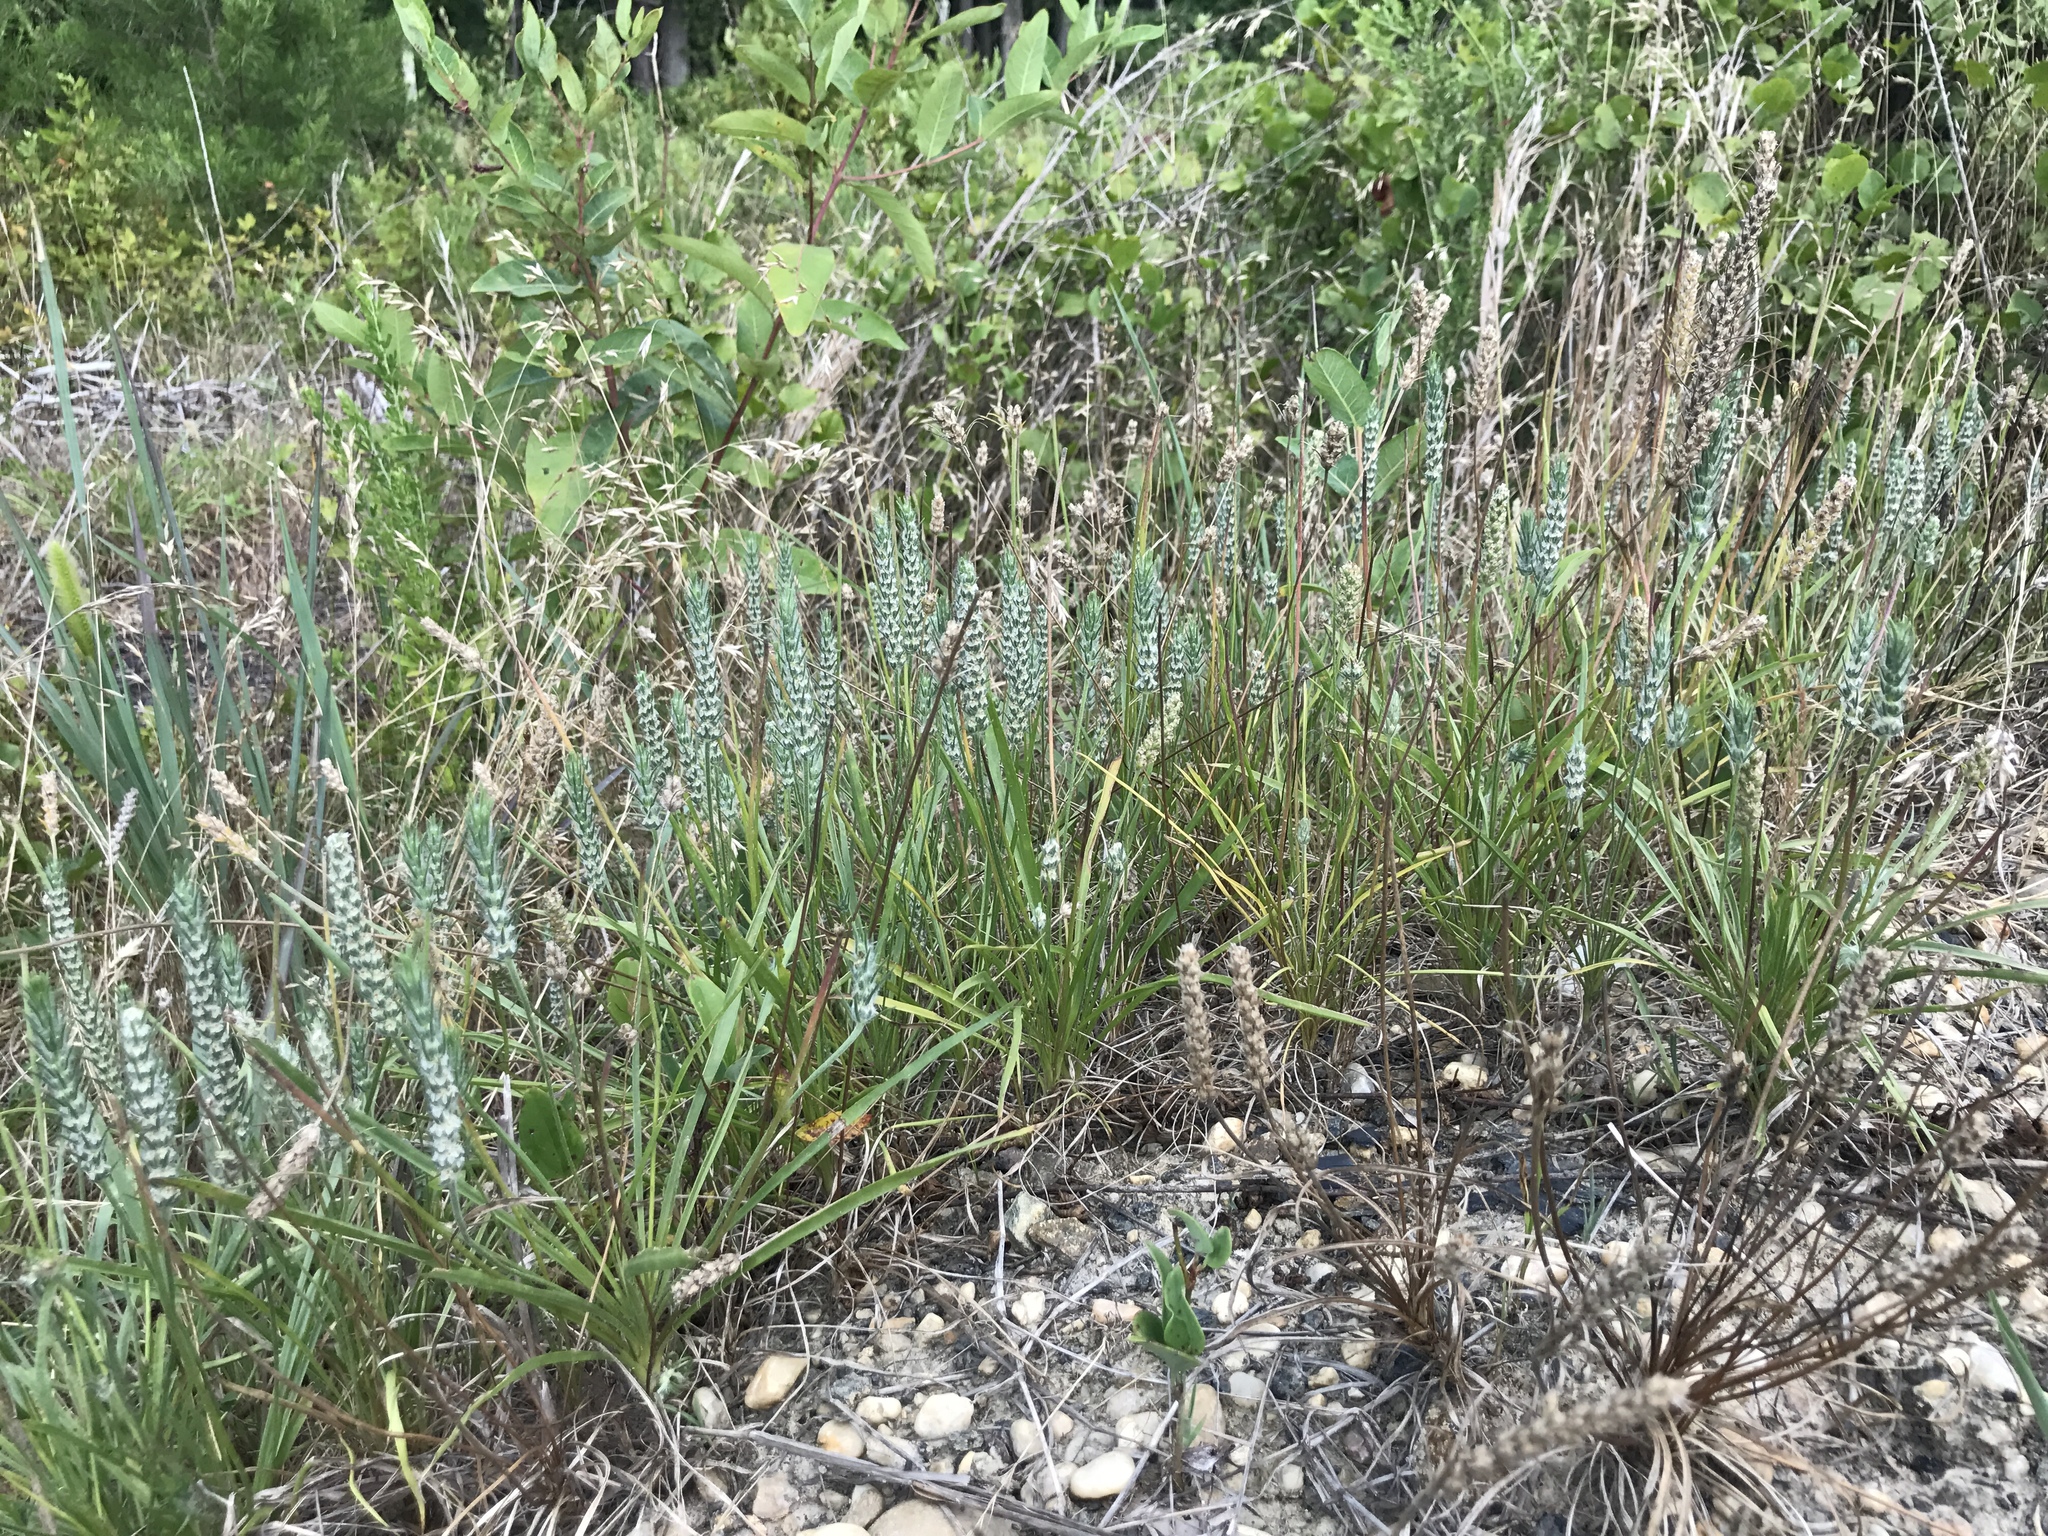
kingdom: Plantae
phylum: Tracheophyta
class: Magnoliopsida
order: Lamiales
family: Plantaginaceae
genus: Plantago
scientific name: Plantago aristata
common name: Bracted plantain
